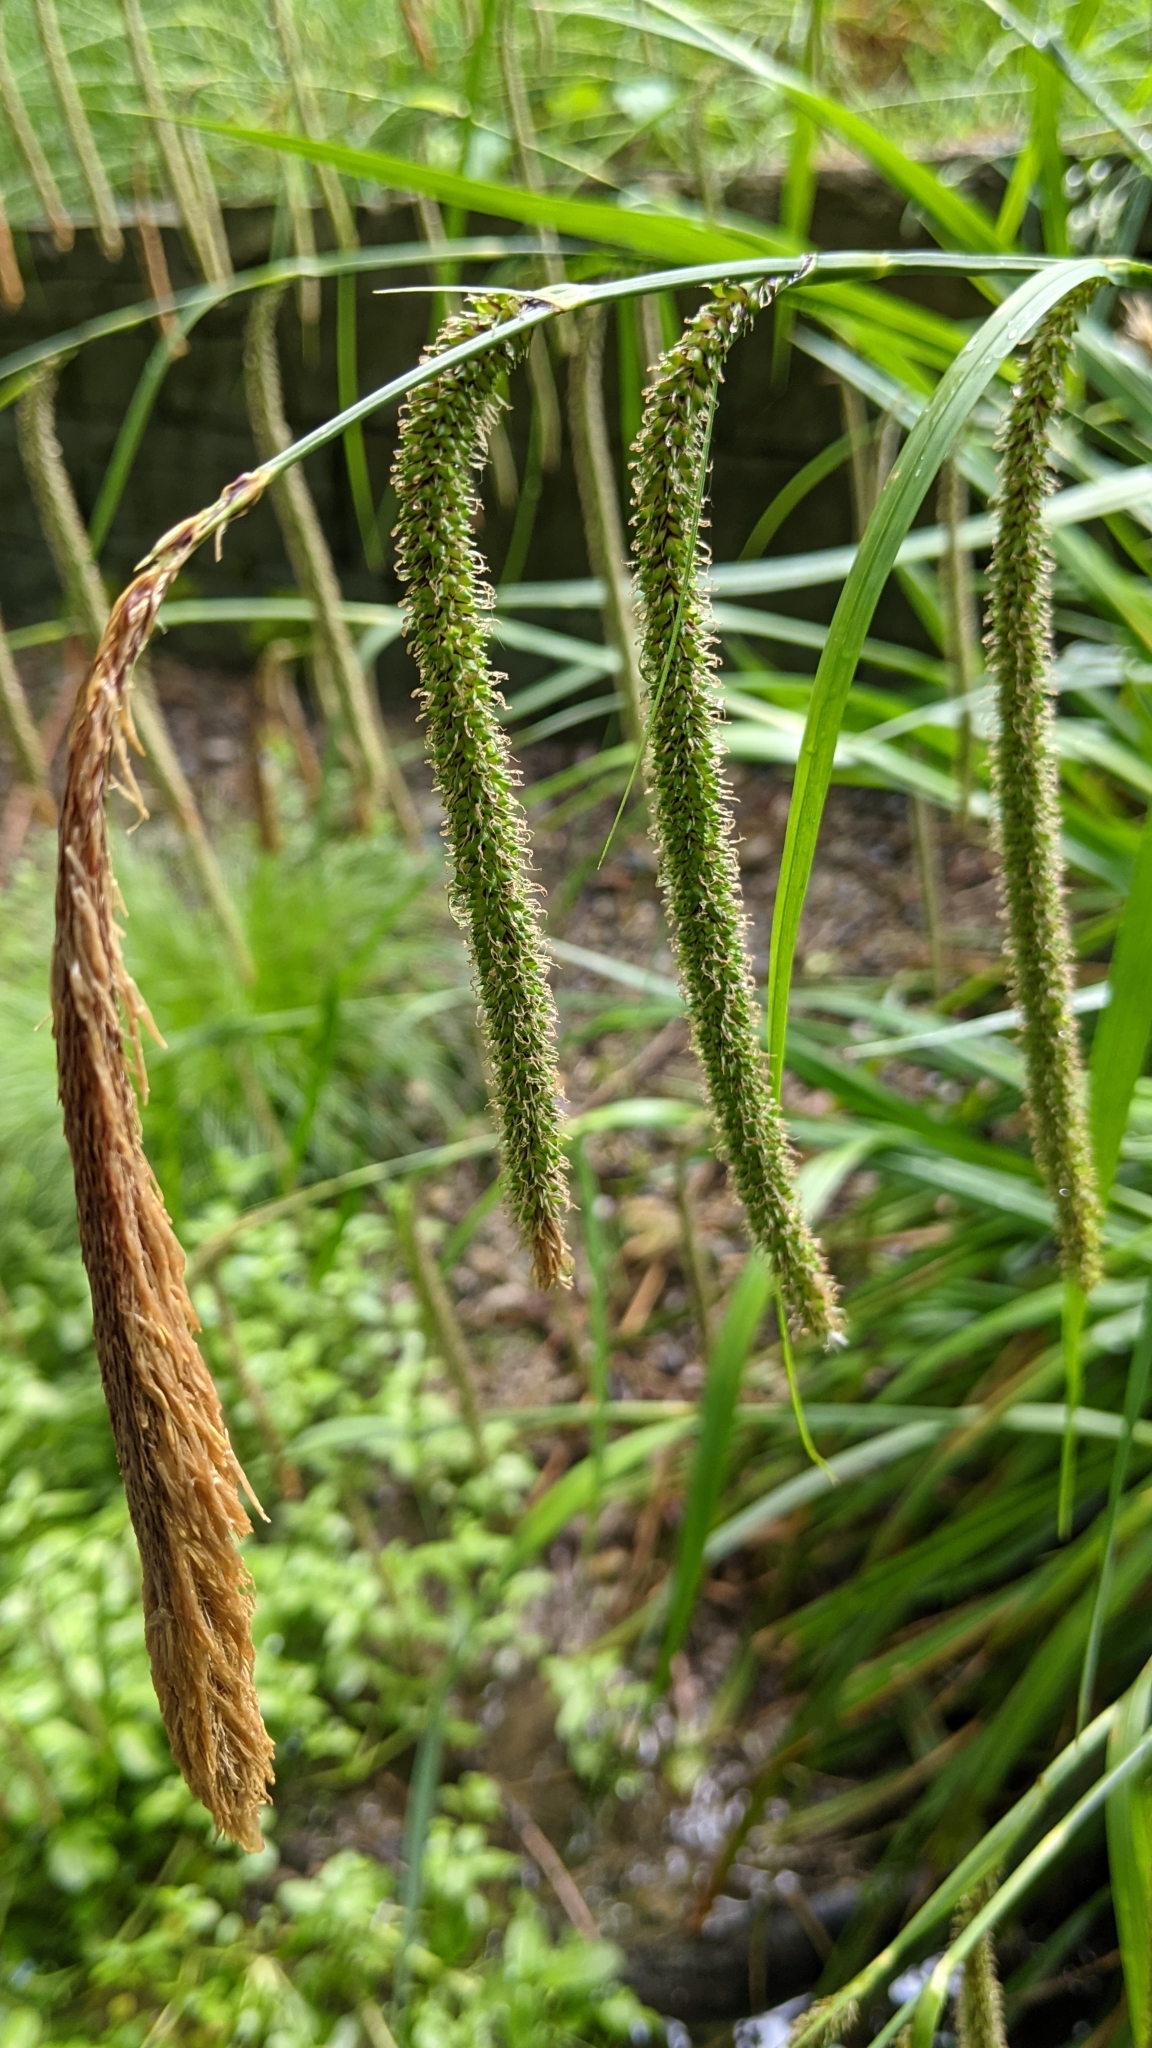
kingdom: Plantae
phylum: Tracheophyta
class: Liliopsida
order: Poales
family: Cyperaceae
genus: Carex
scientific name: Carex pendula
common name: Pendulous sedge
